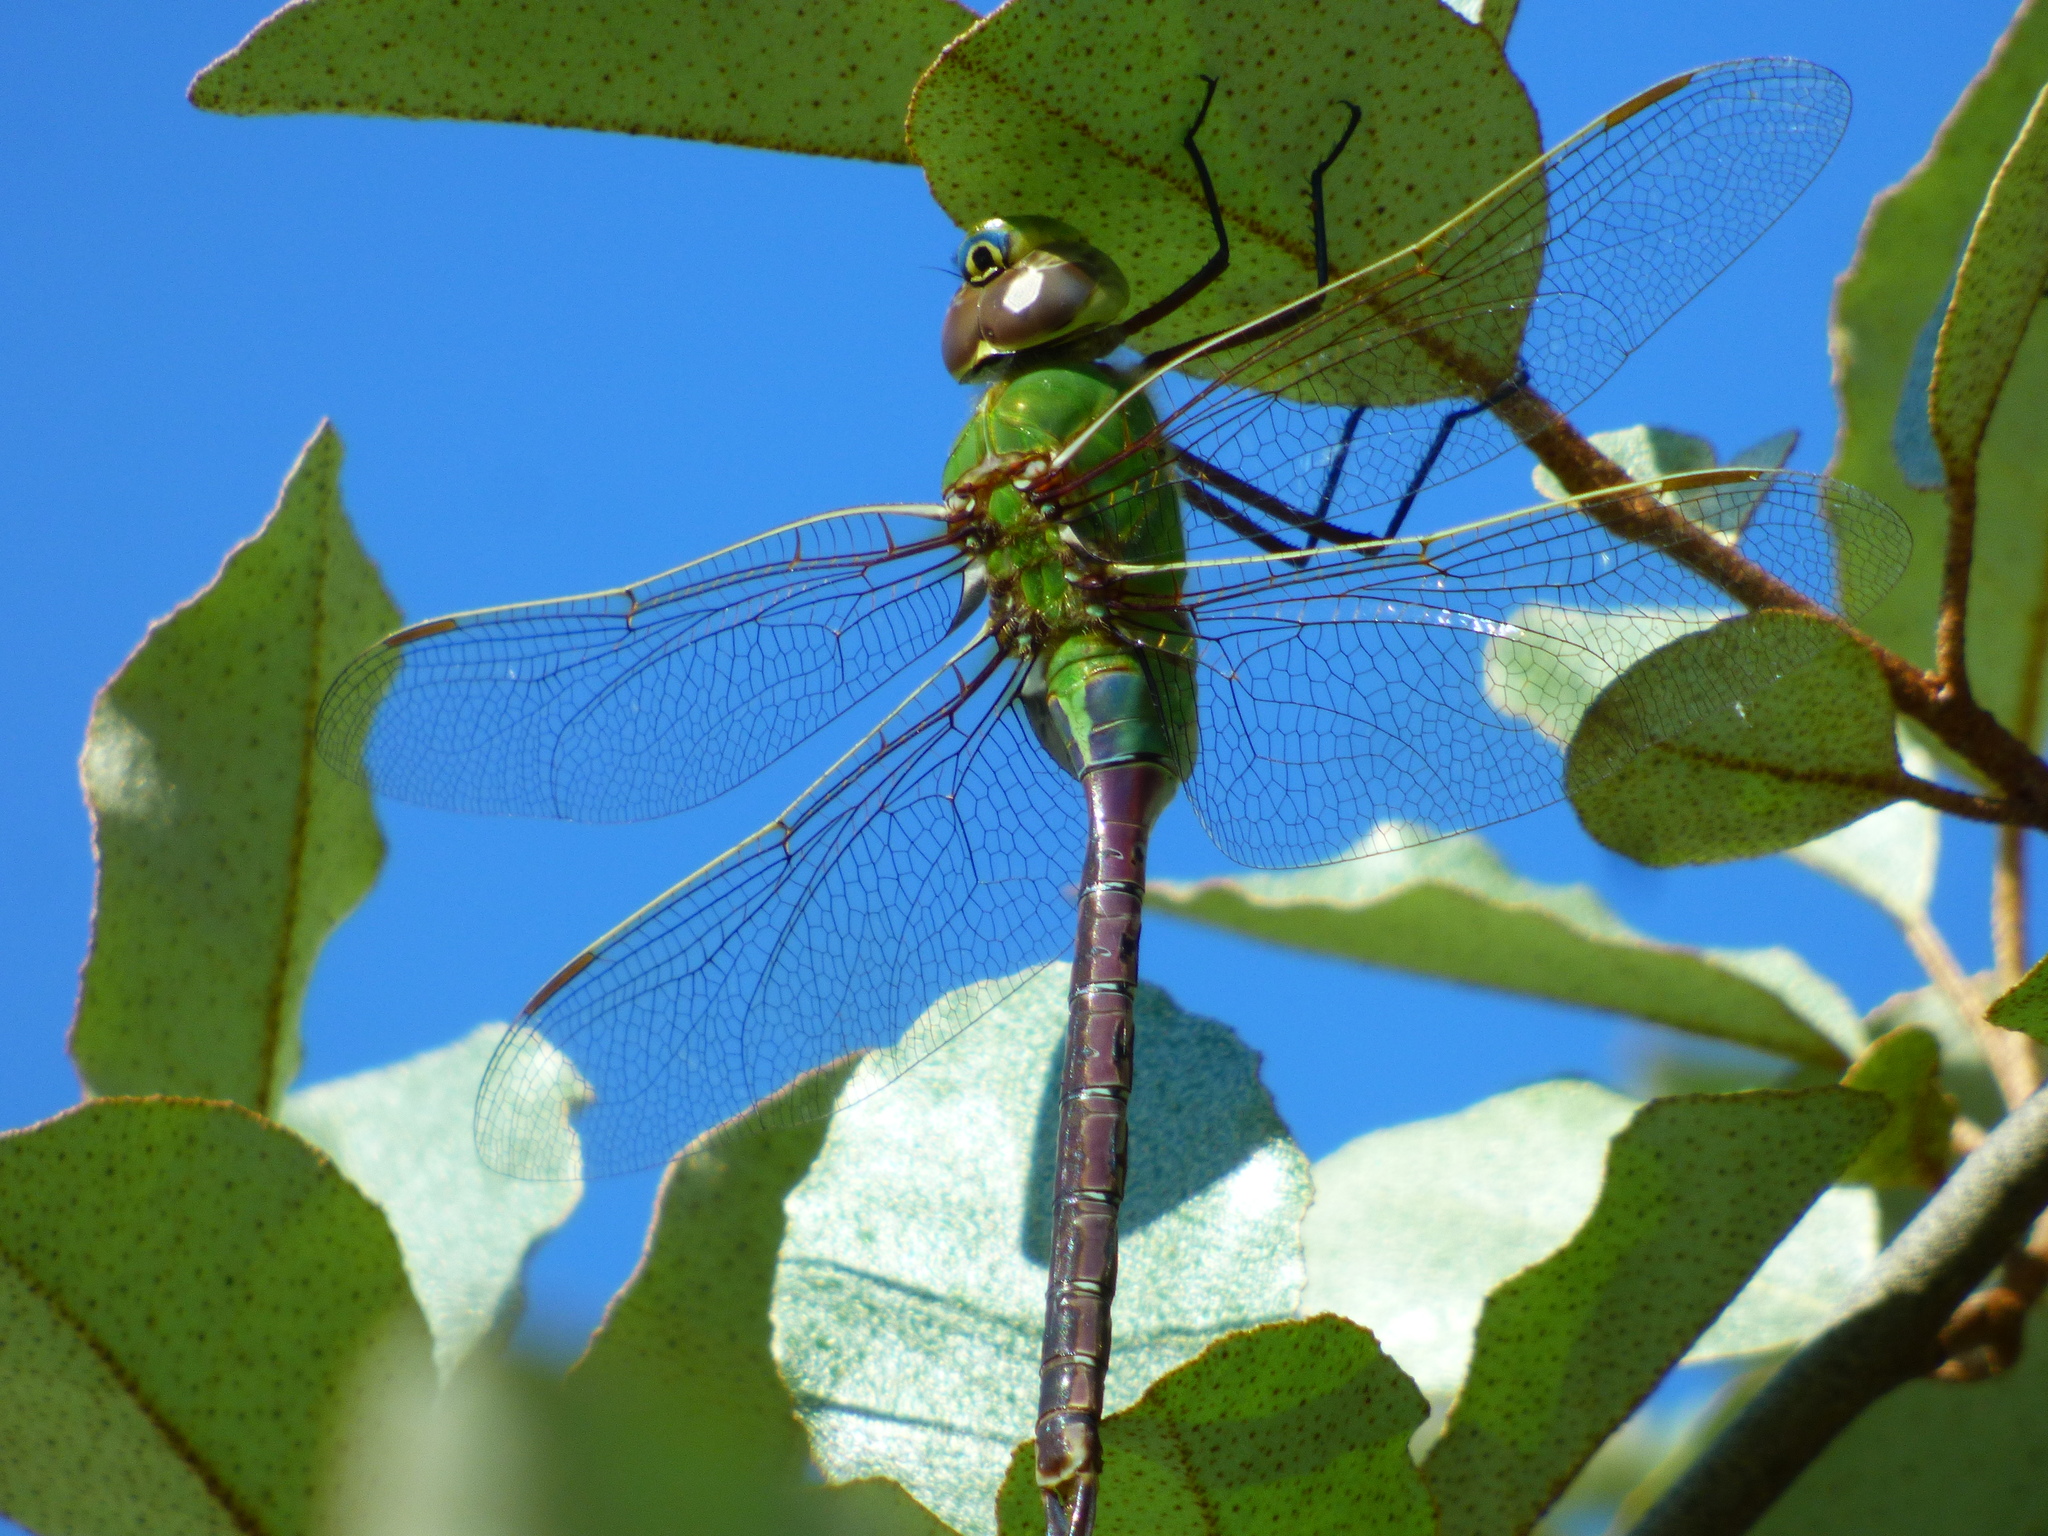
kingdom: Animalia
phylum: Arthropoda
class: Insecta
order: Odonata
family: Aeshnidae
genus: Anax
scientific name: Anax junius
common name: Common green darner
